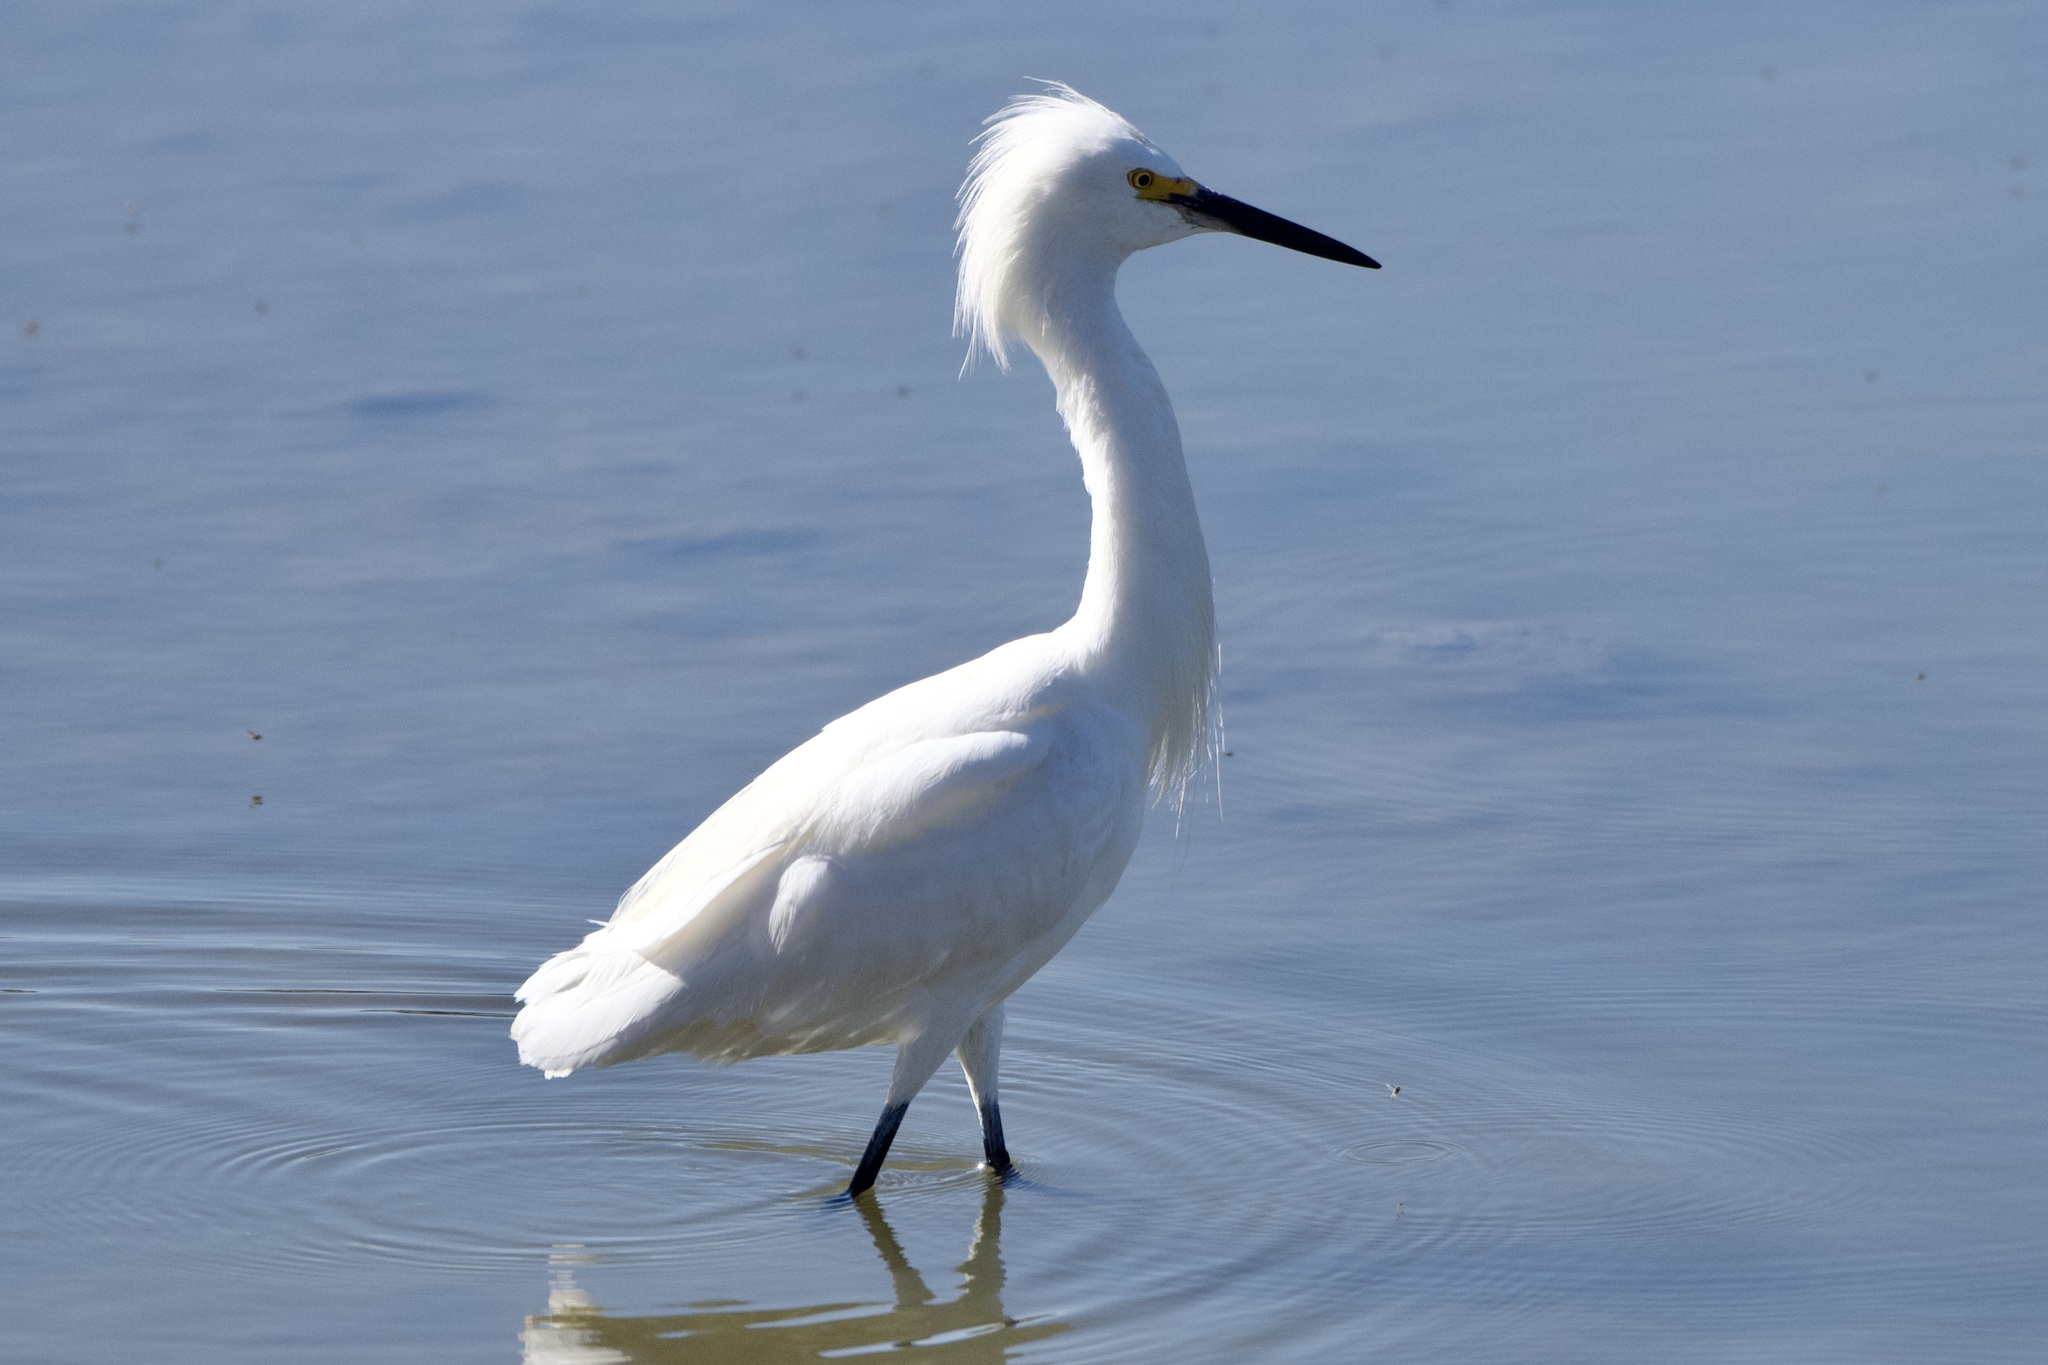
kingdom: Animalia
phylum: Chordata
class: Aves
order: Pelecaniformes
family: Ardeidae
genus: Egretta
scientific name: Egretta thula
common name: Snowy egret
